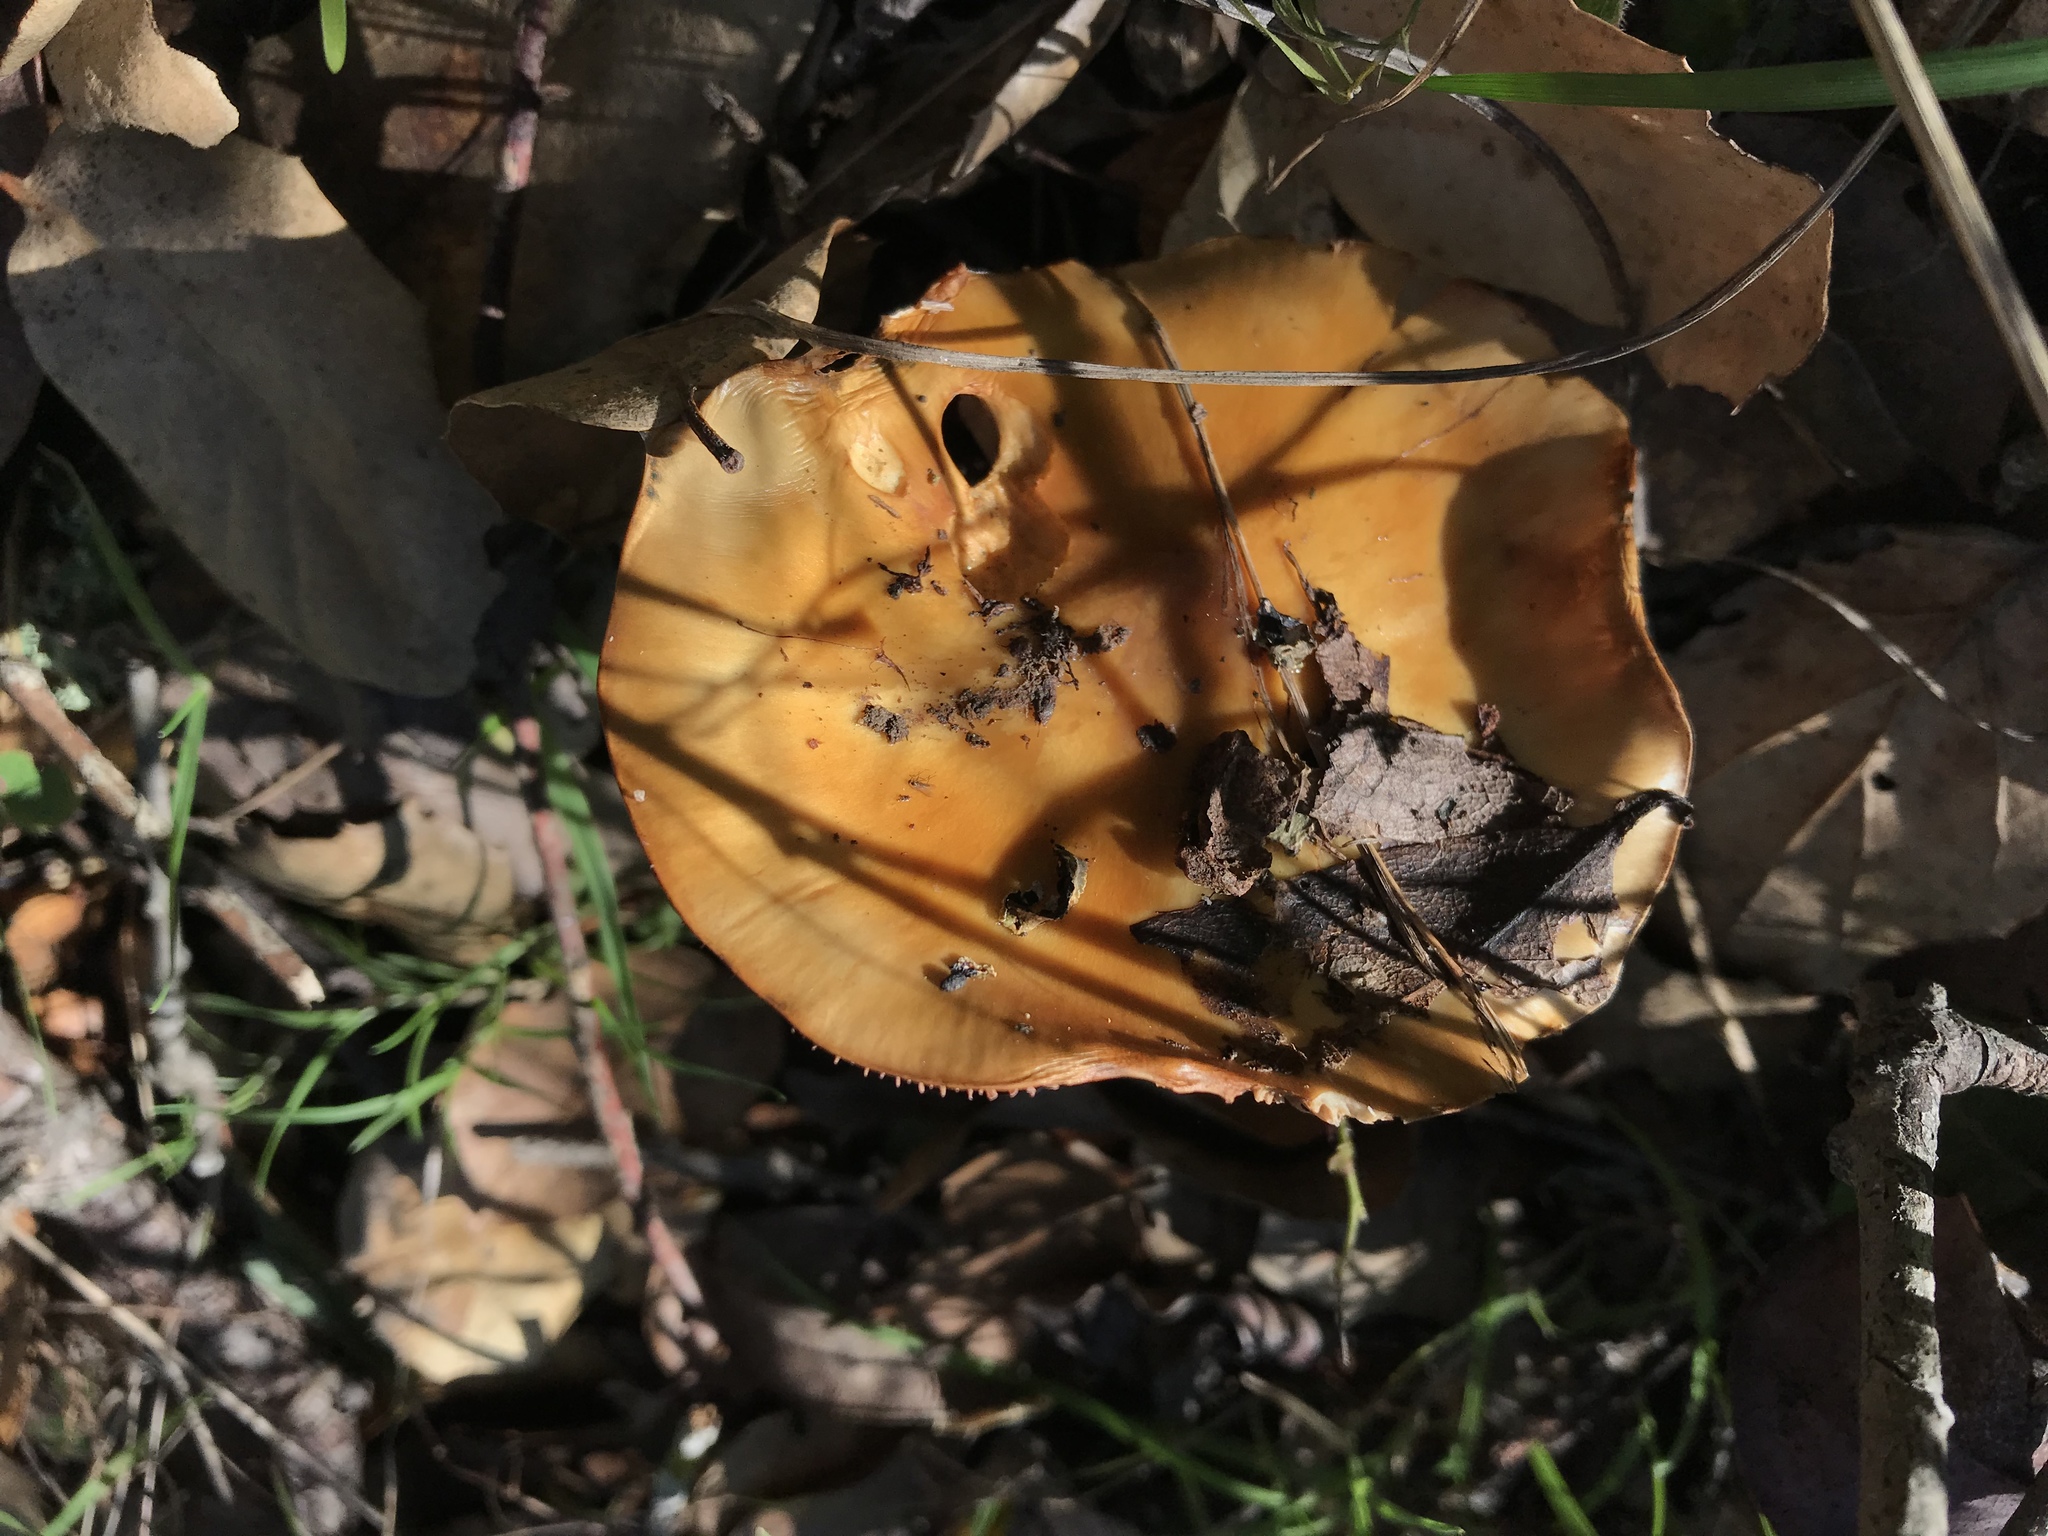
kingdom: Fungi
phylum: Basidiomycota
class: Agaricomycetes
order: Agaricales
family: Cortinariaceae
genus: Cortinarius
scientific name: Cortinarius glutinosoarmillatus
